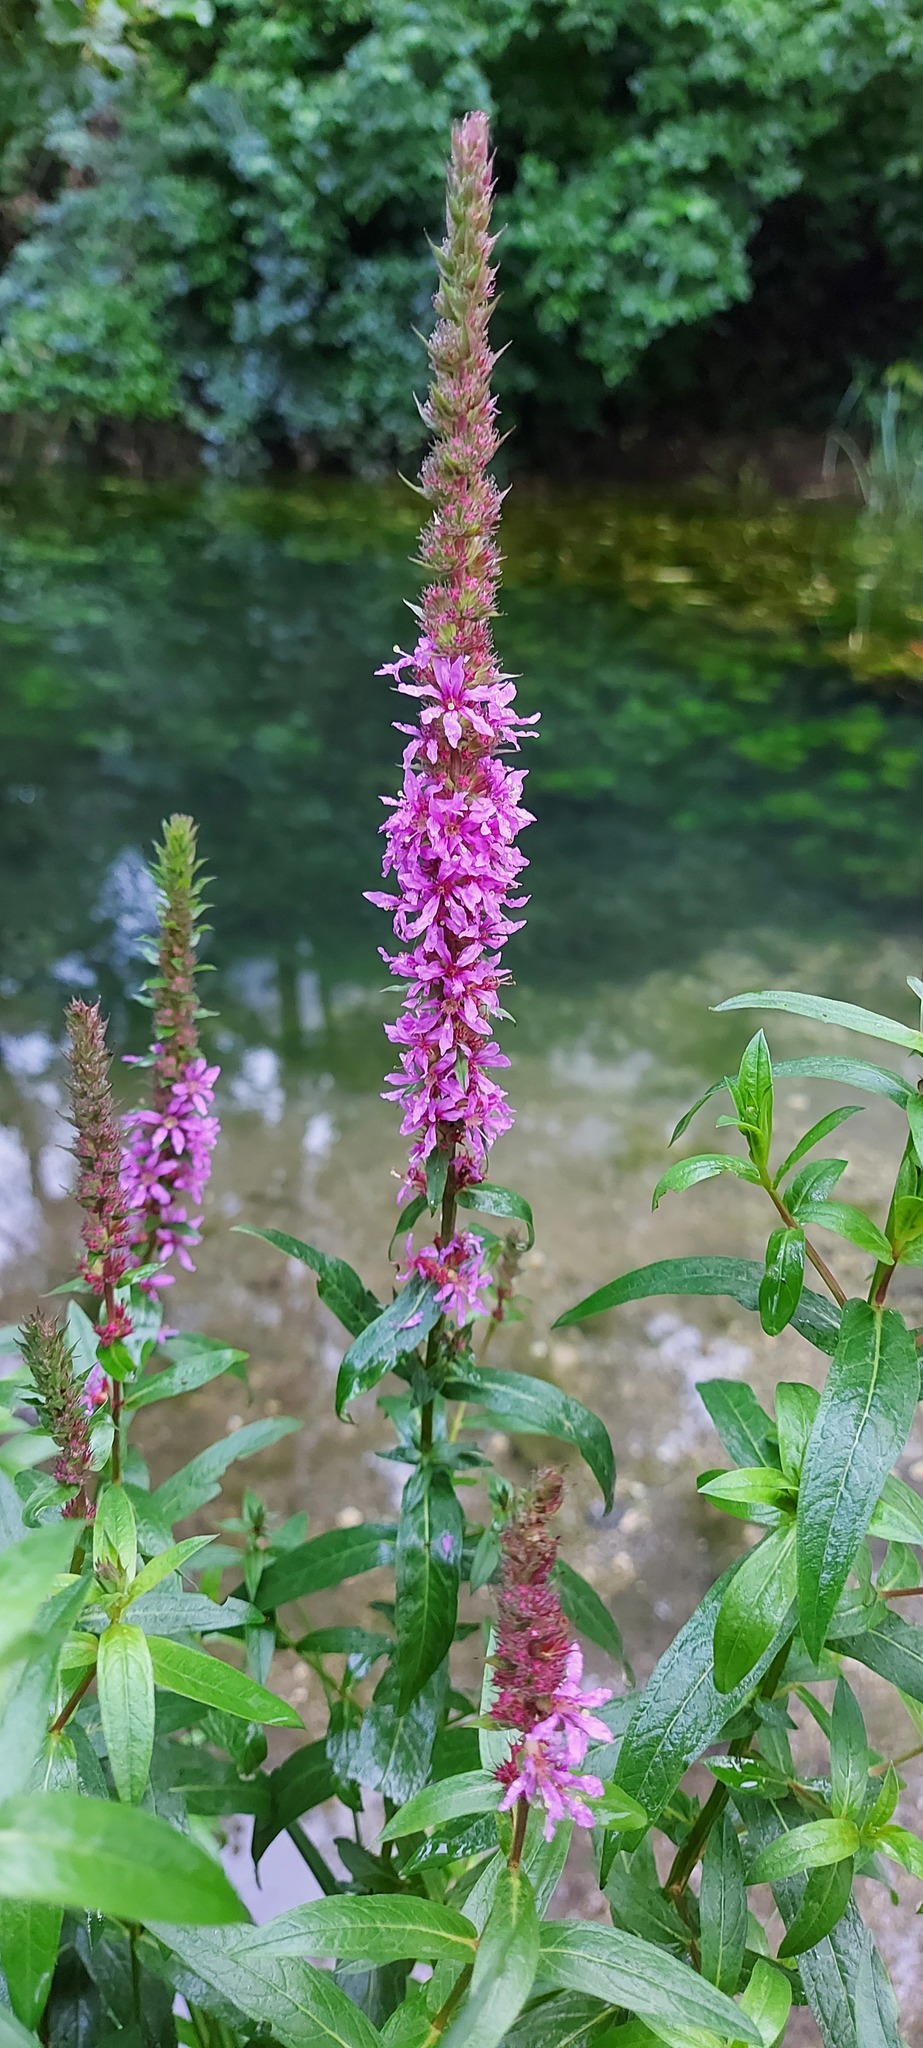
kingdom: Plantae
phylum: Tracheophyta
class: Magnoliopsida
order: Myrtales
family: Lythraceae
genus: Lythrum
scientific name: Lythrum salicaria
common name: Purple loosestrife
